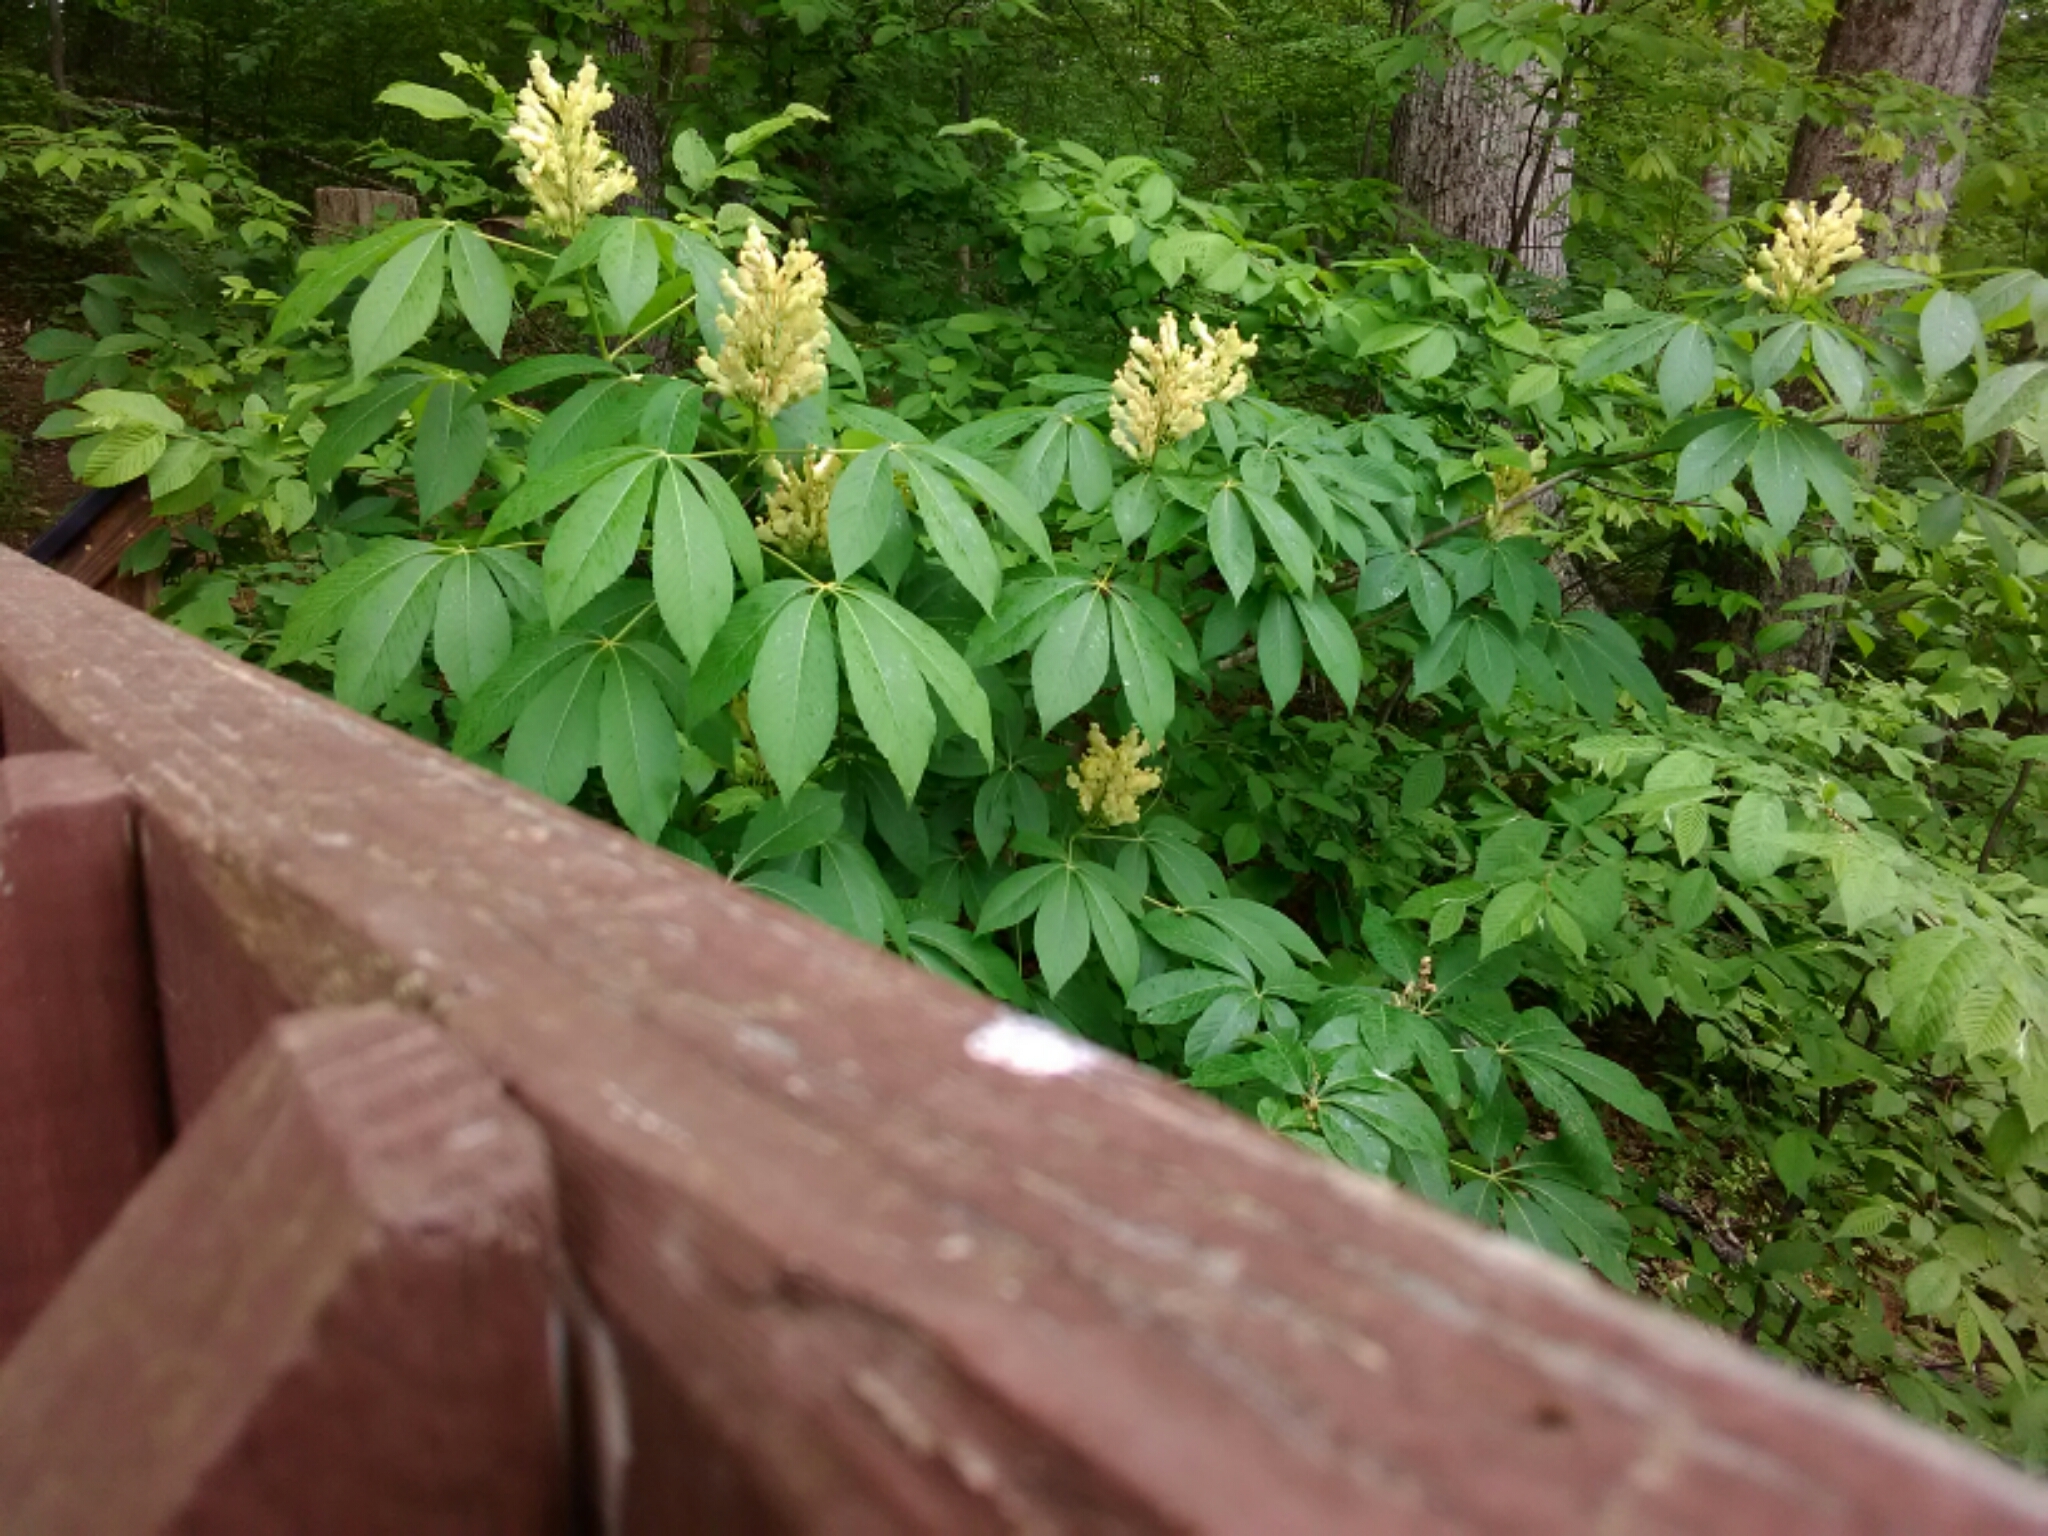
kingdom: Plantae
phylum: Tracheophyta
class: Magnoliopsida
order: Sapindales
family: Sapindaceae
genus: Aesculus
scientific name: Aesculus sylvatica
